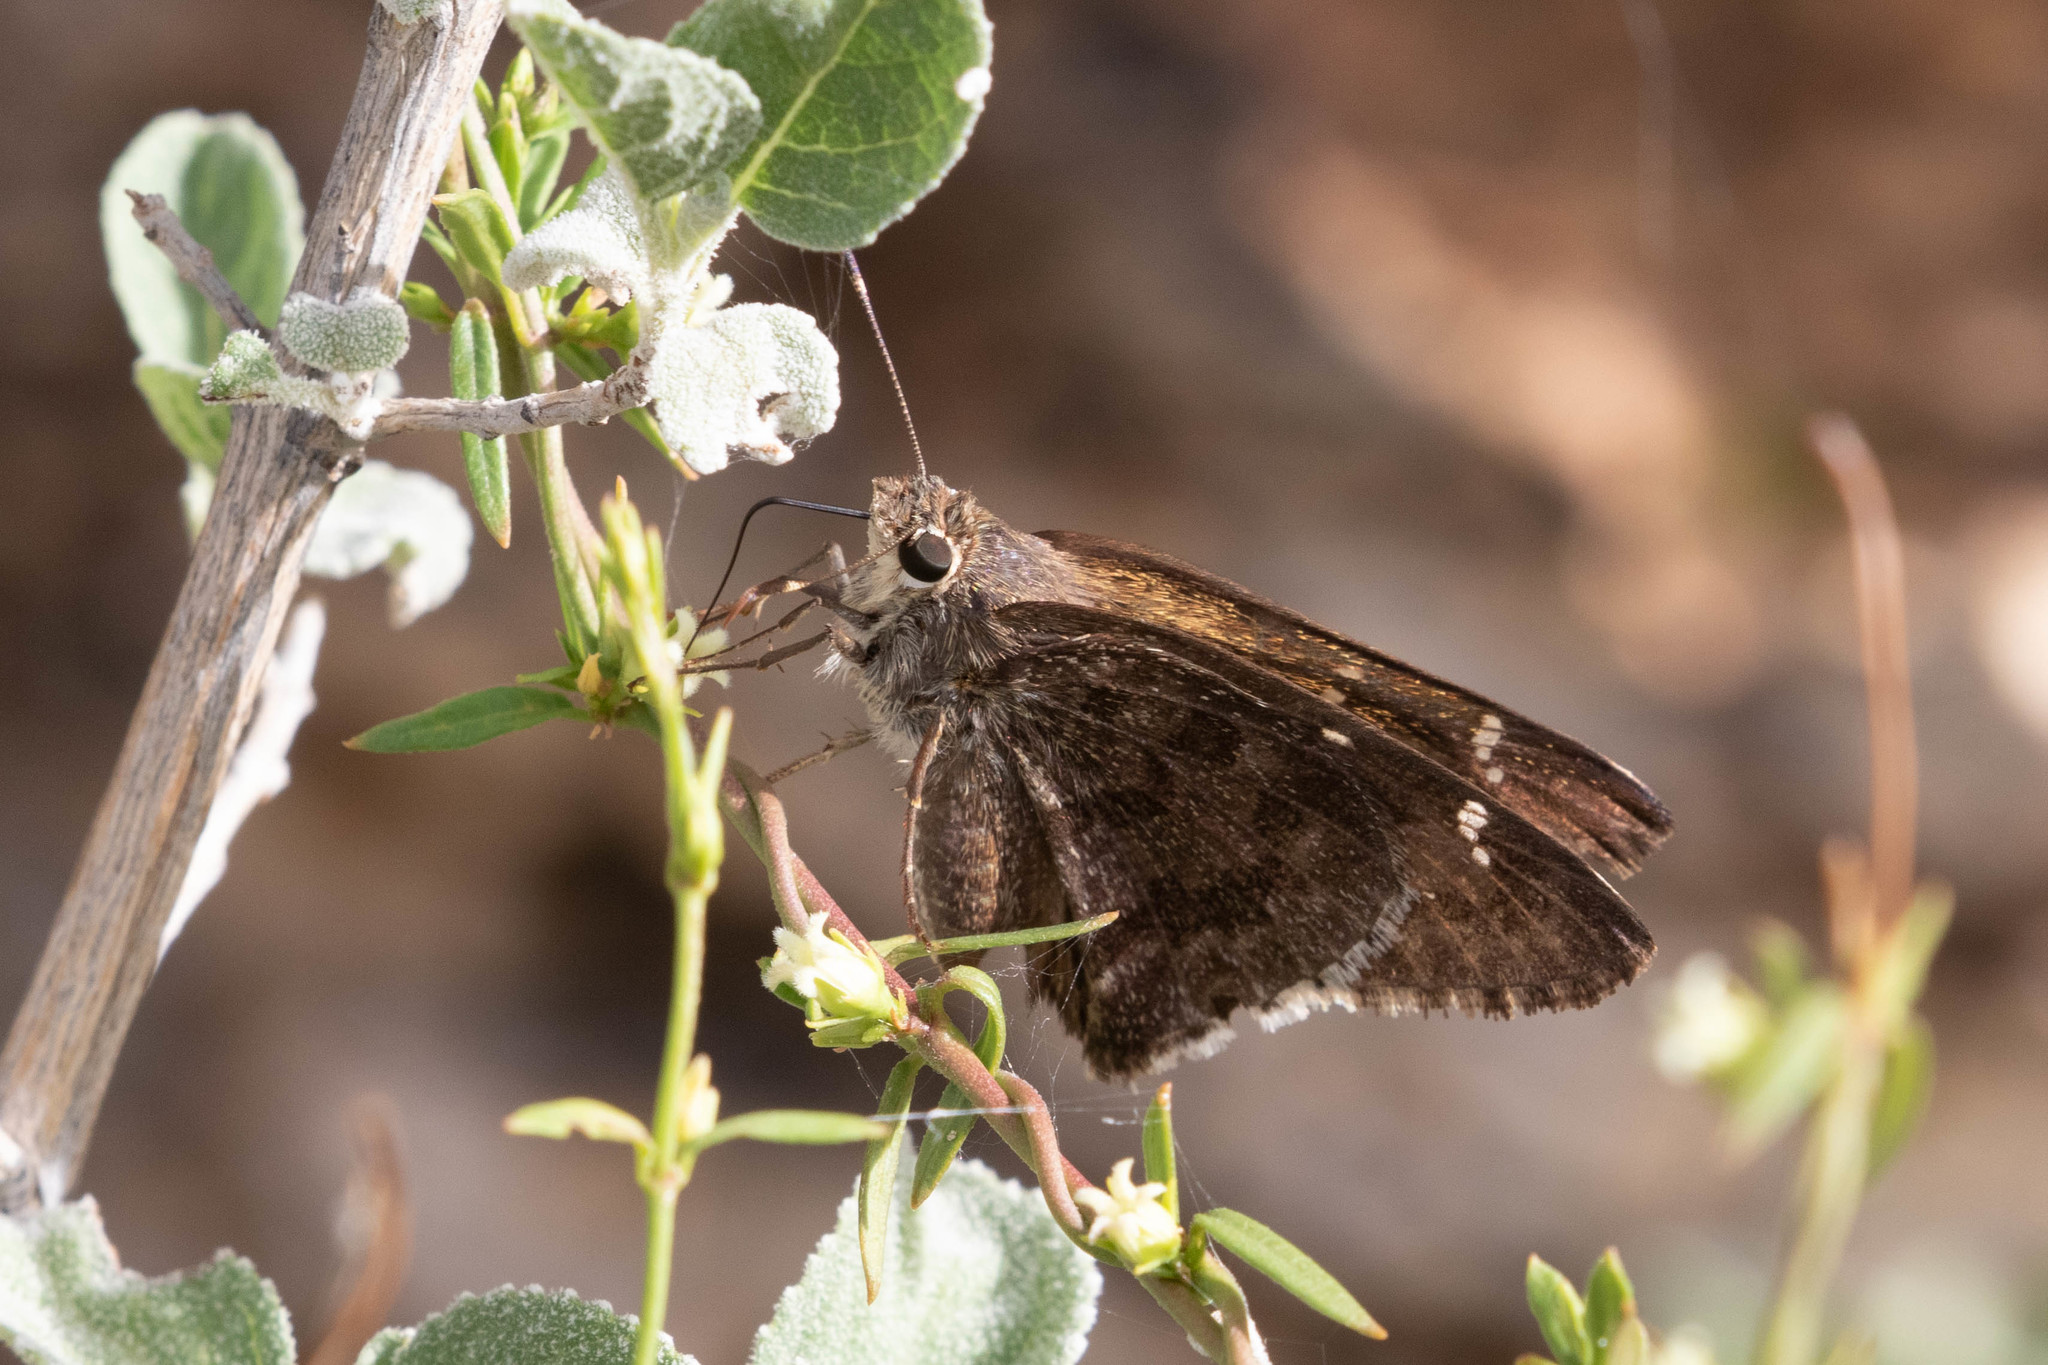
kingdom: Animalia
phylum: Arthropoda
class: Insecta
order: Lepidoptera
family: Hesperiidae
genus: Cogia
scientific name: Cogia hippalus
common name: Acacia skipper
